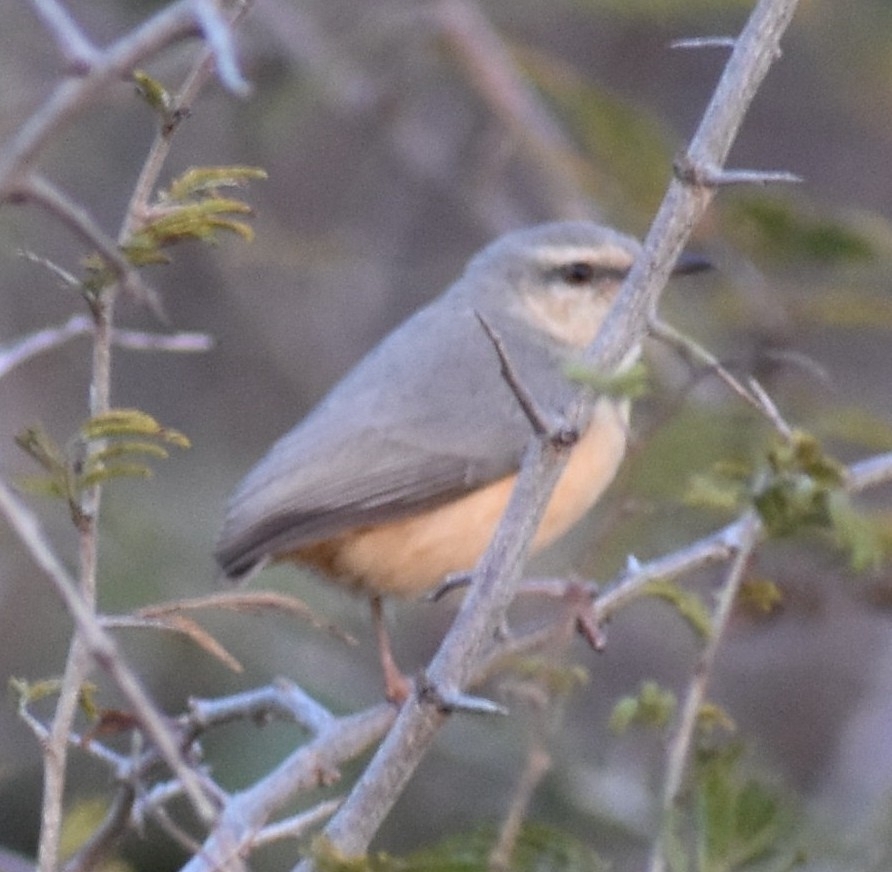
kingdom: Animalia
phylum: Chordata
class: Aves
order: Passeriformes
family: Macrosphenidae
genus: Sylvietta
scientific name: Sylvietta rufescens
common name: Long-billed crombec
